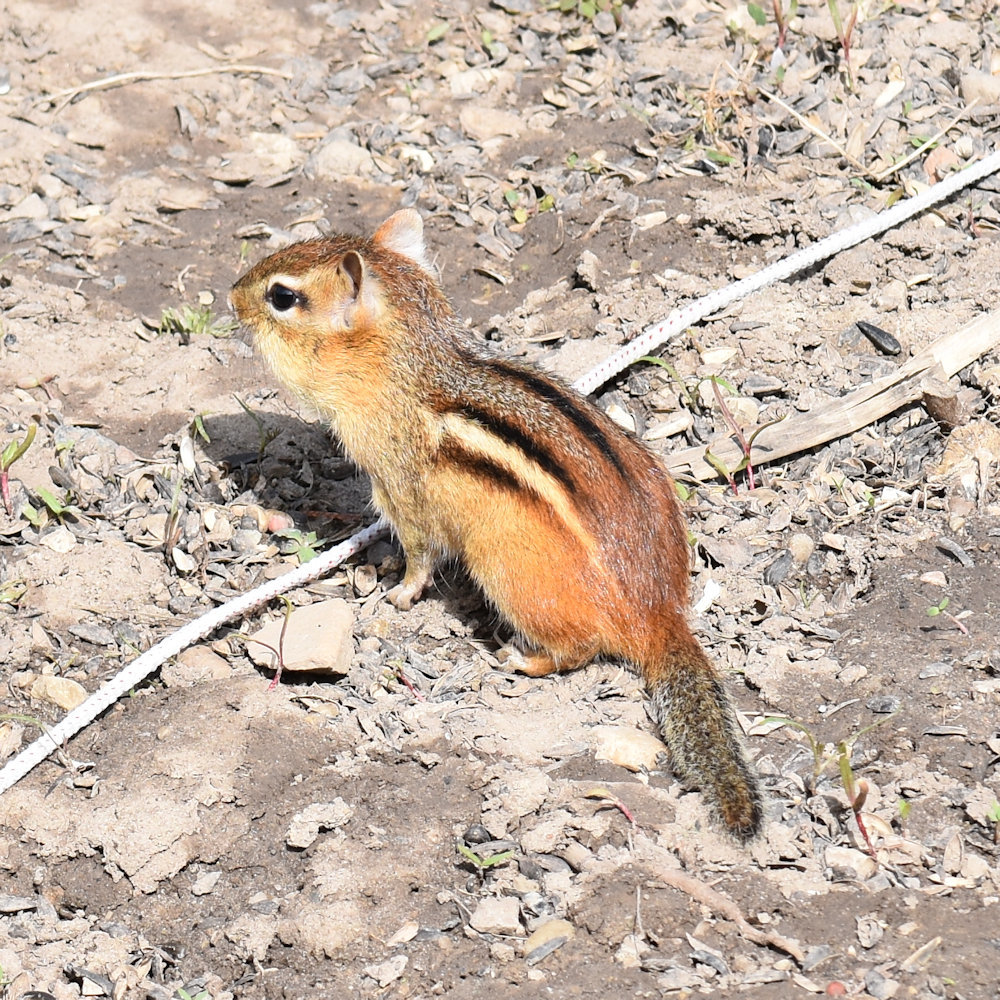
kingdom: Animalia
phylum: Chordata
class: Mammalia
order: Rodentia
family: Sciuridae
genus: Tamias
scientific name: Tamias striatus
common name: Eastern chipmunk
